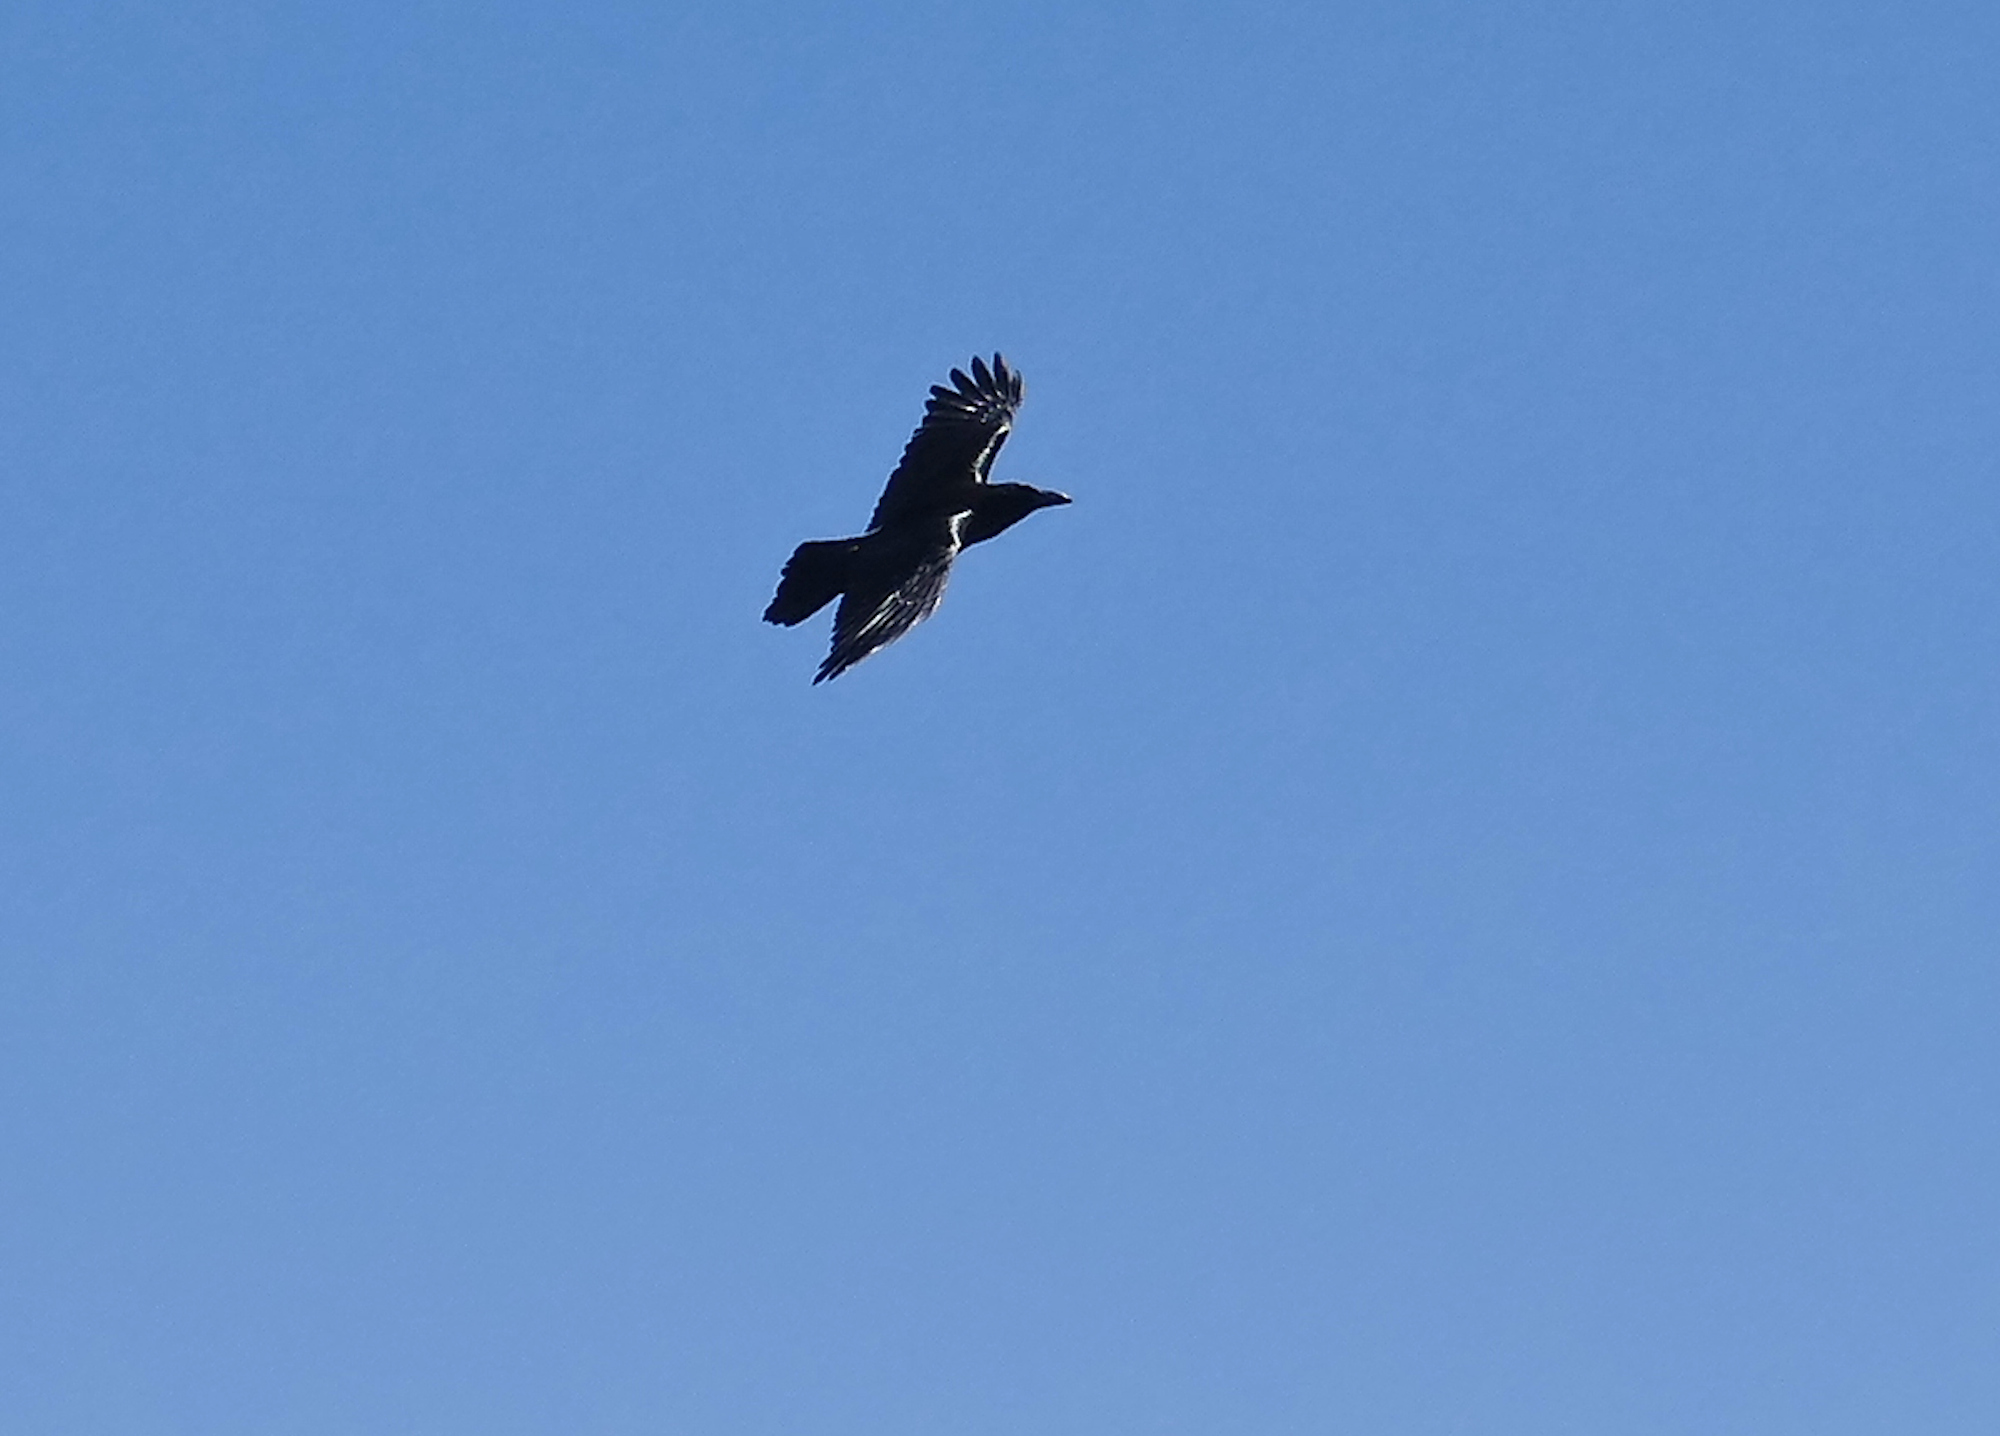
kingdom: Animalia
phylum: Chordata
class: Aves
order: Passeriformes
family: Corvidae
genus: Corvus
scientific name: Corvus corax
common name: Common raven
